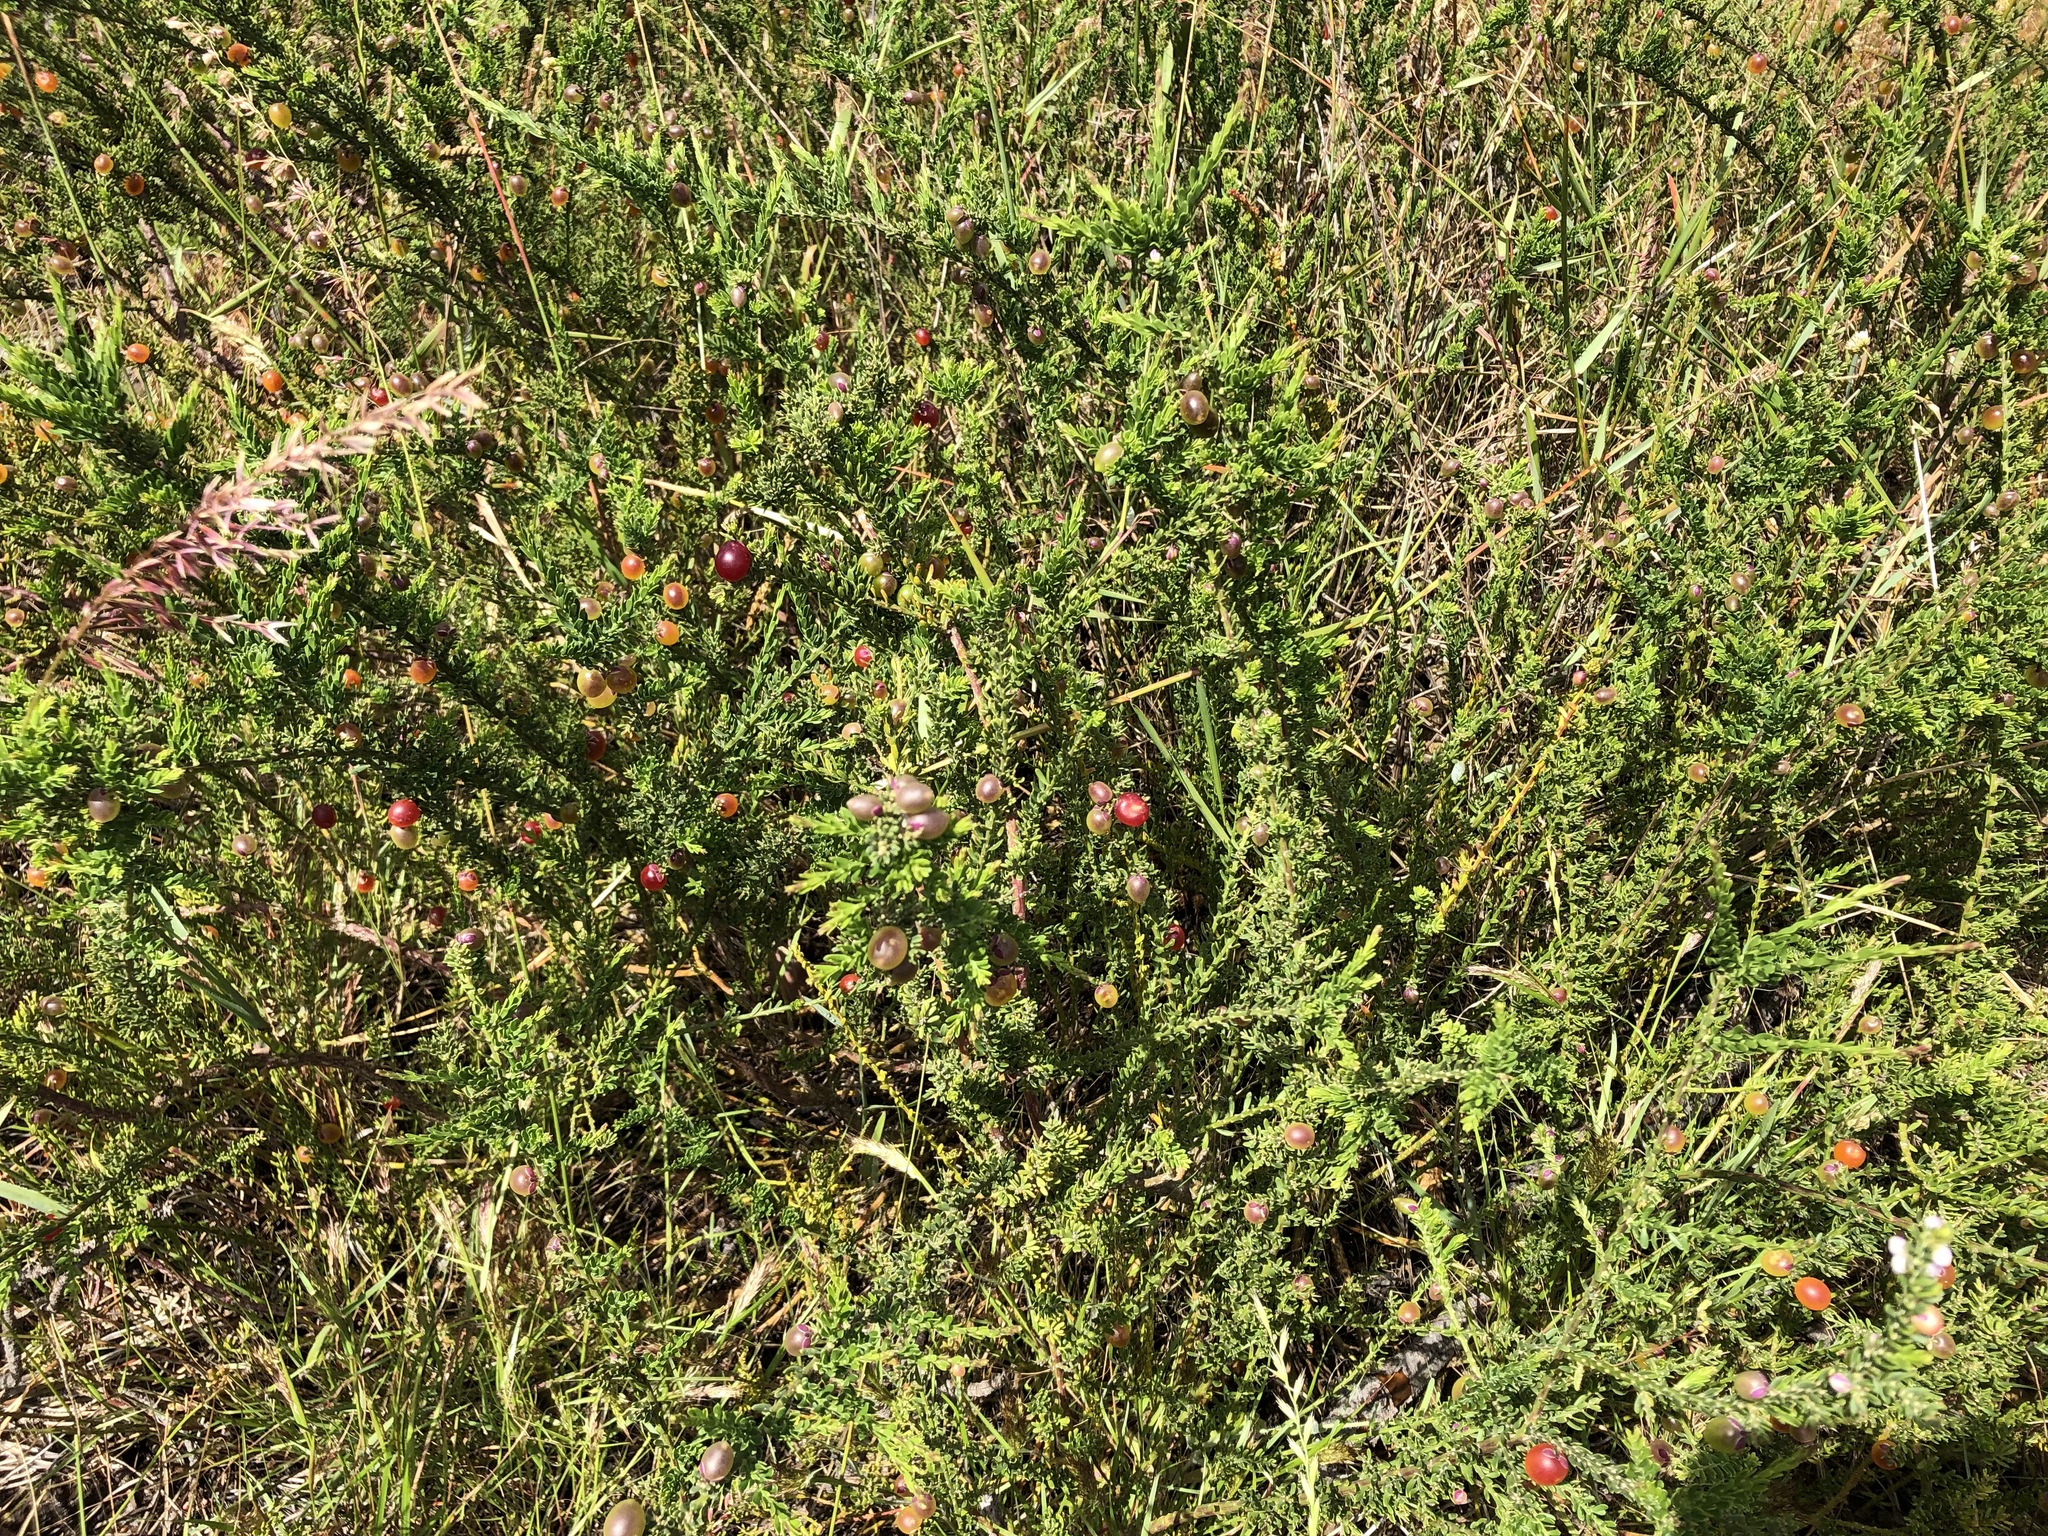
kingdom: Plantae
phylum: Tracheophyta
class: Magnoliopsida
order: Fabales
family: Polygalaceae
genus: Muraltia
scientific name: Muraltia spinosa
